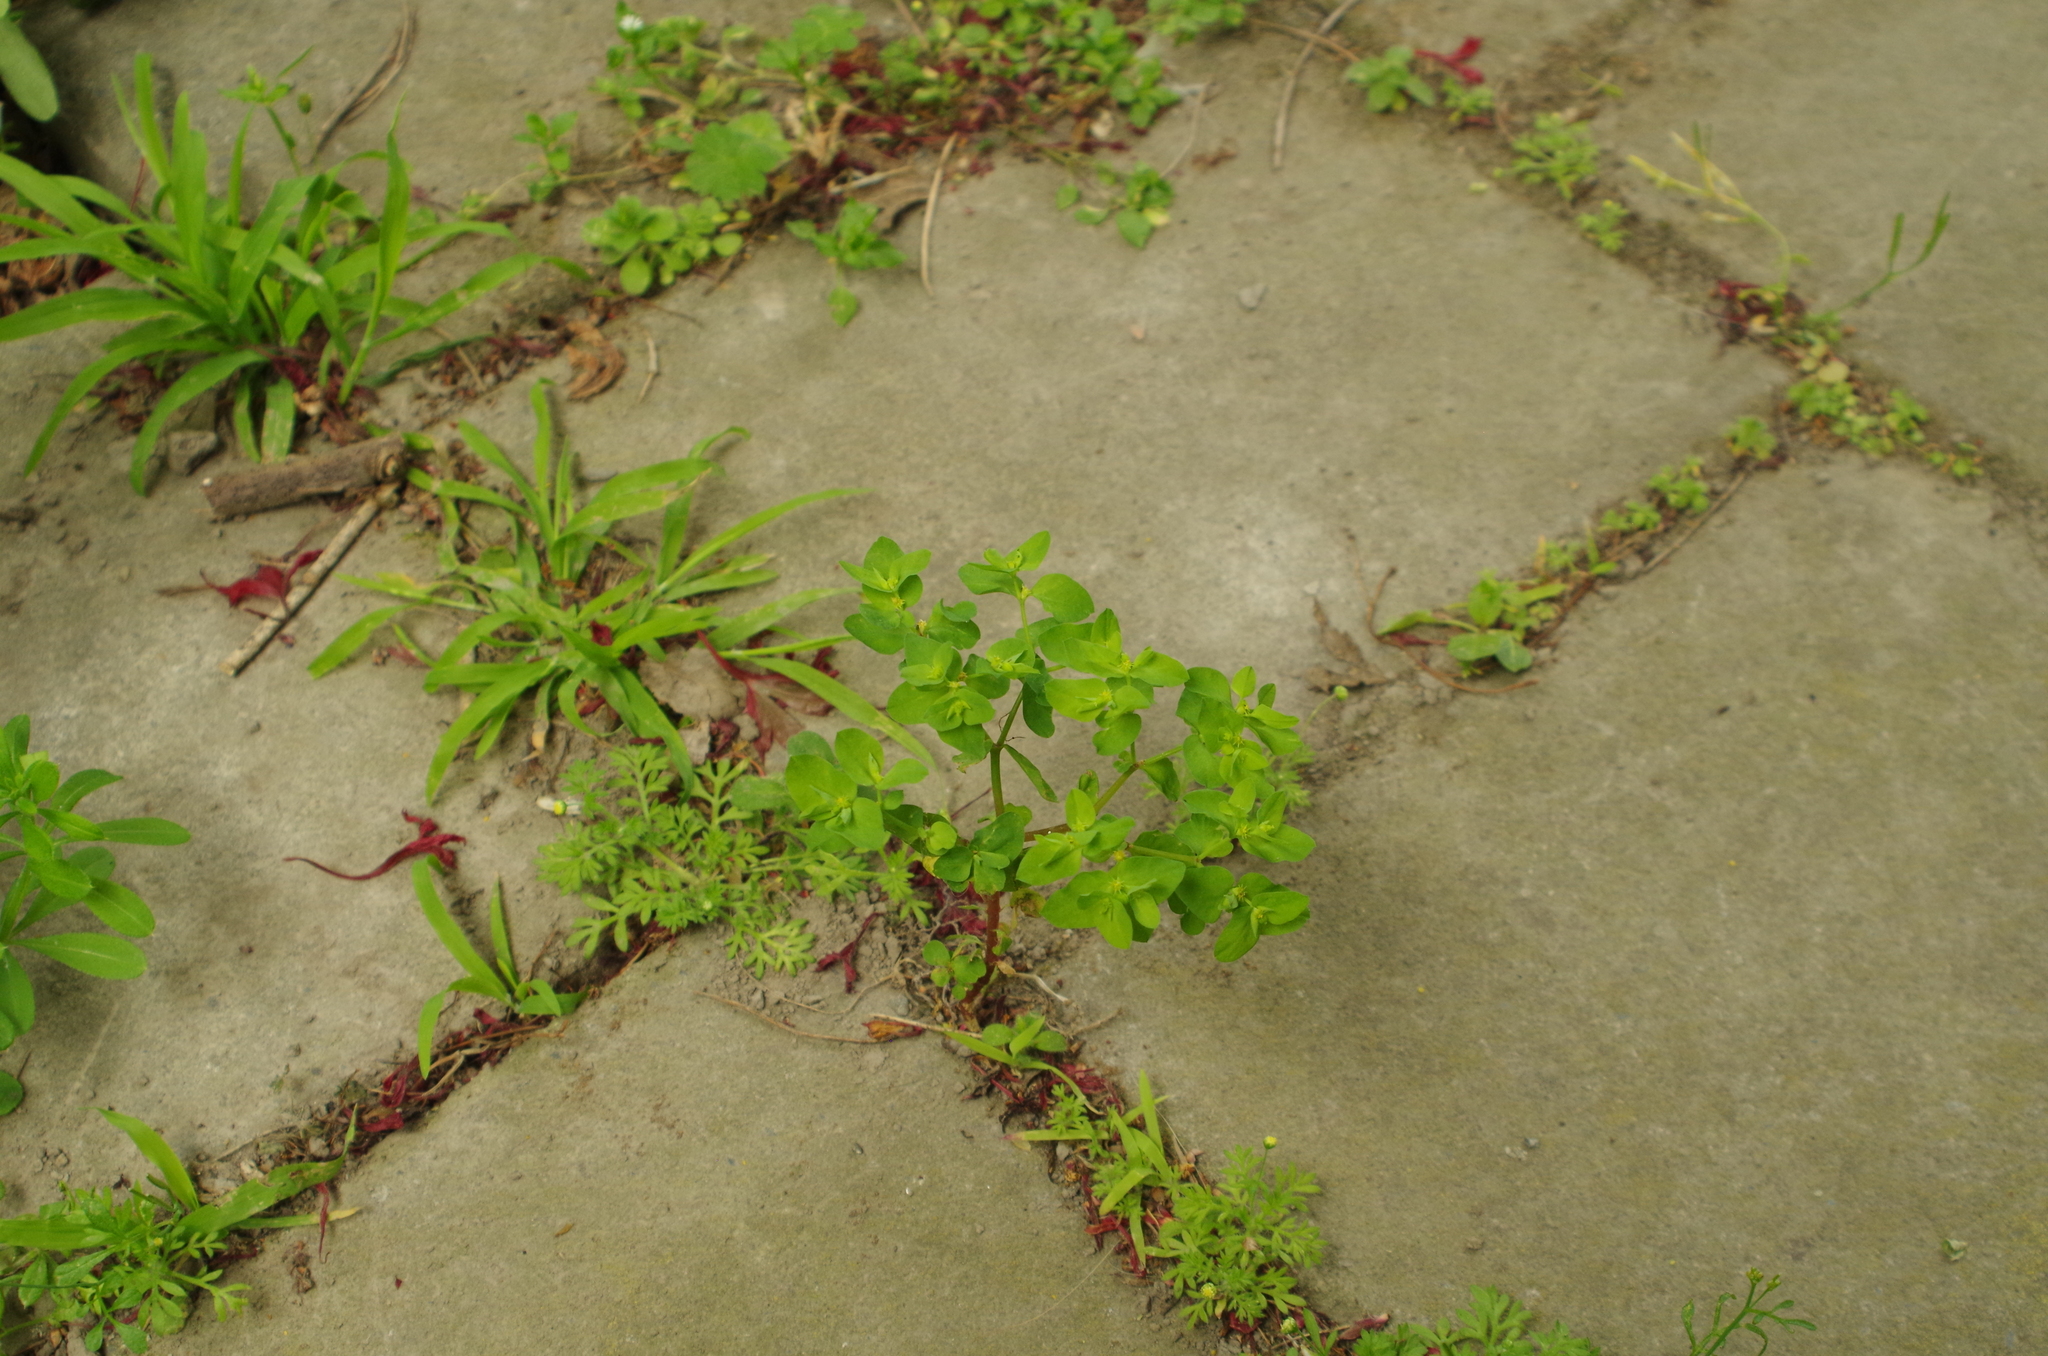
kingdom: Plantae
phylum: Tracheophyta
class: Magnoliopsida
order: Malpighiales
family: Euphorbiaceae
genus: Euphorbia
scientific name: Euphorbia peplus
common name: Petty spurge
